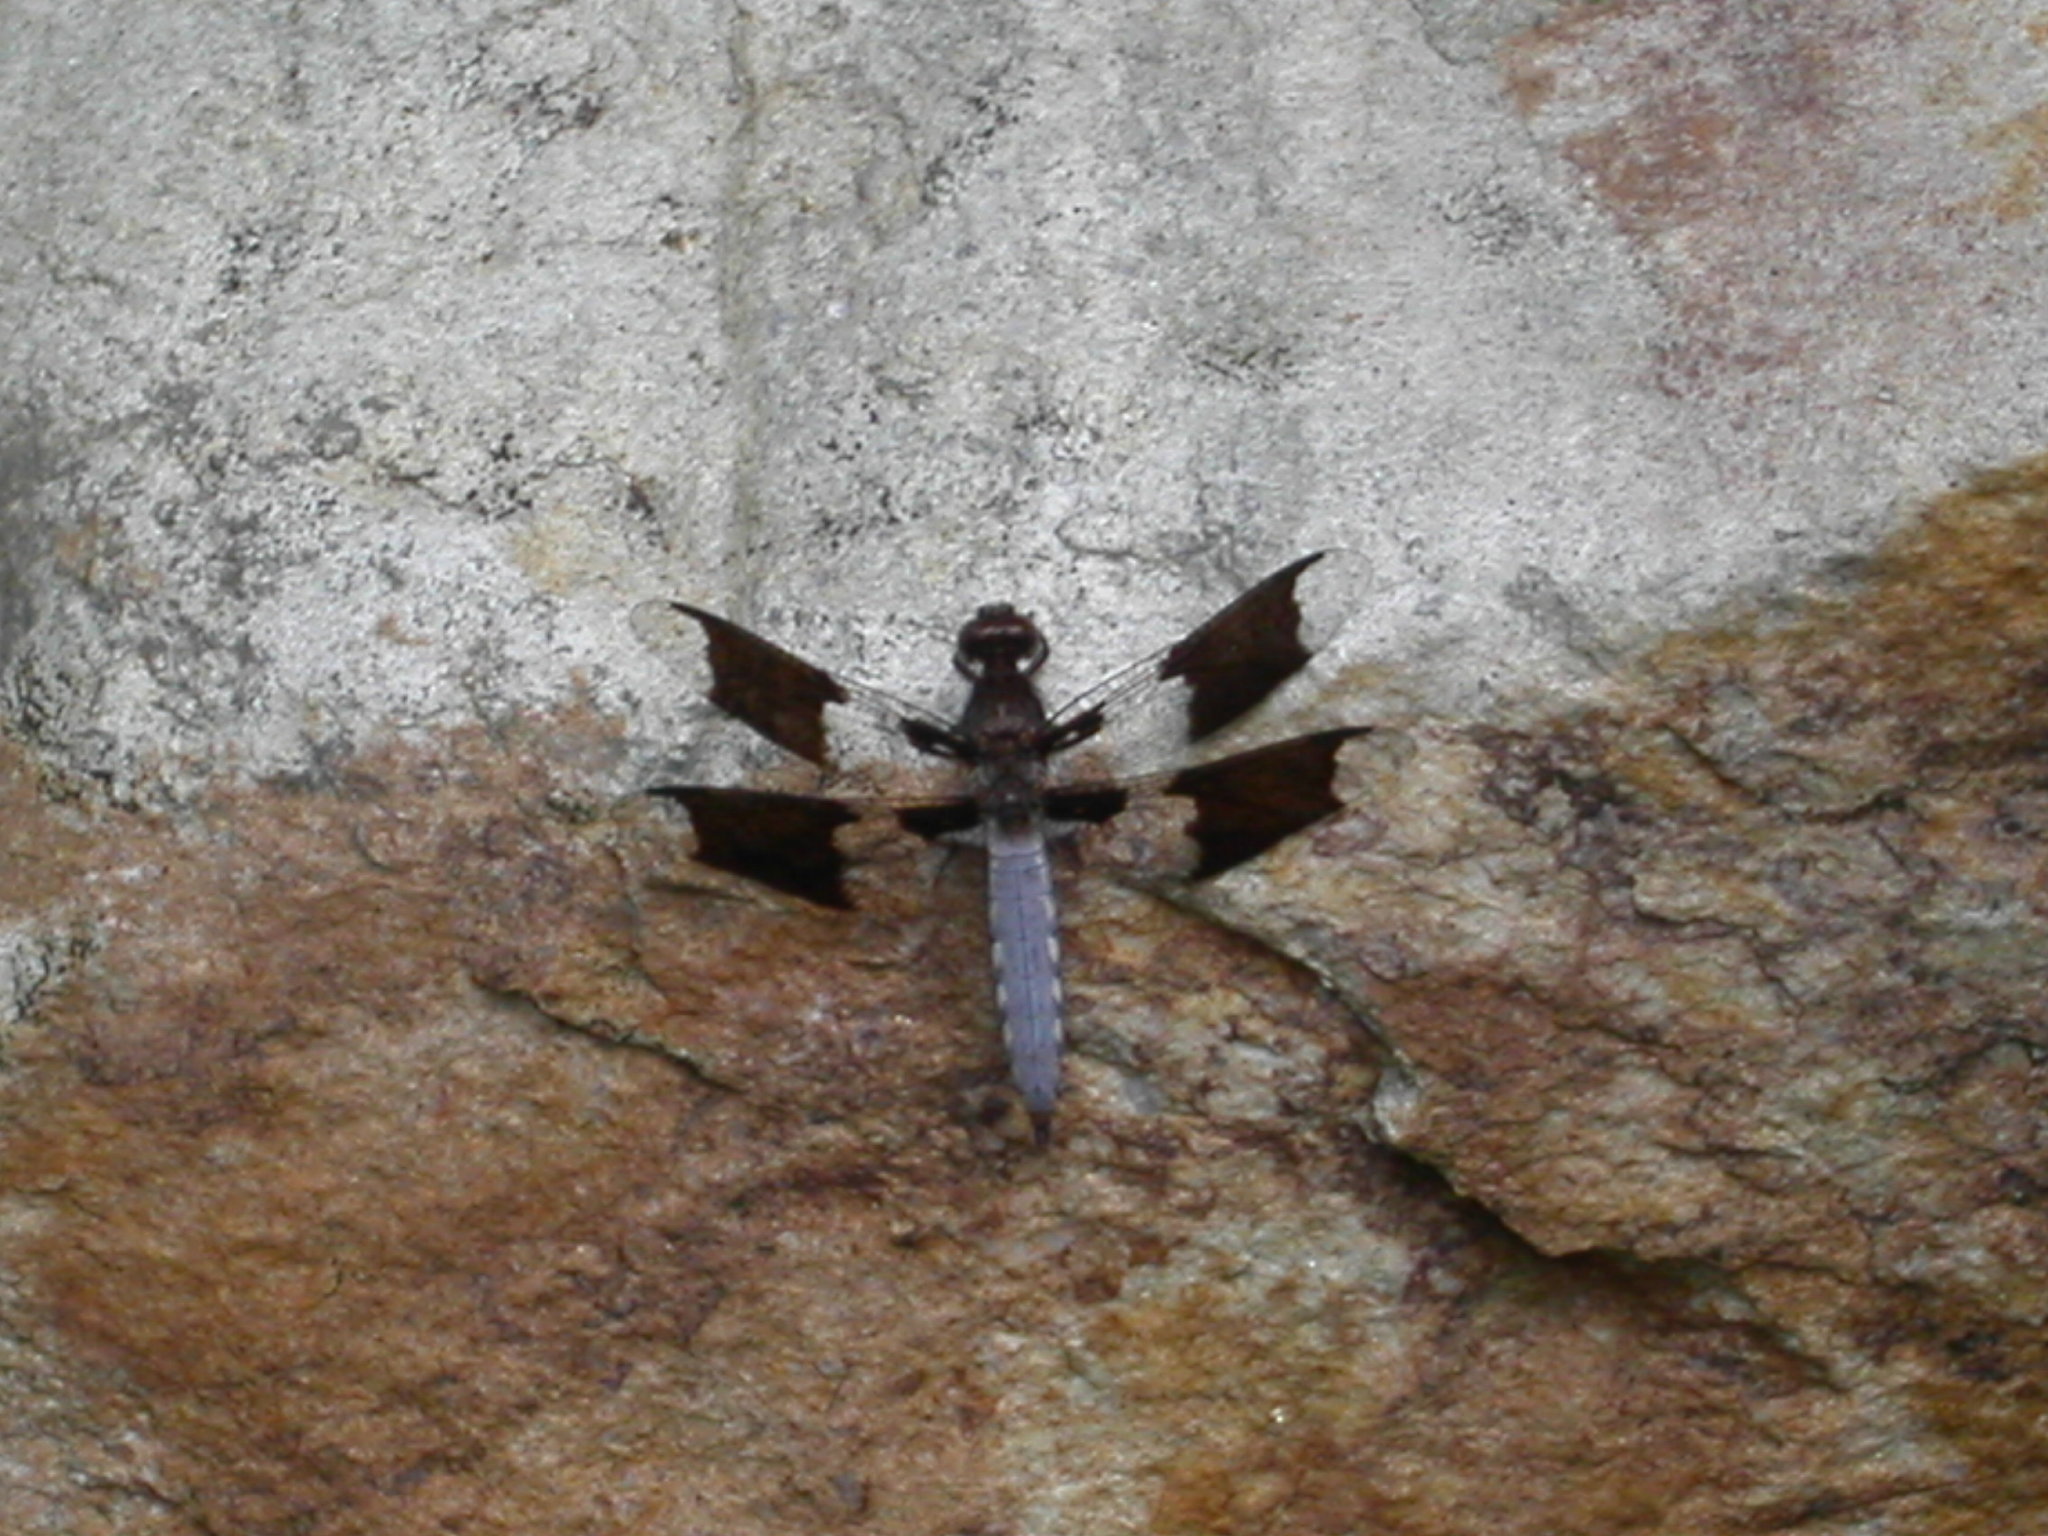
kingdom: Animalia
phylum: Arthropoda
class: Insecta
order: Odonata
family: Libellulidae
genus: Plathemis
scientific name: Plathemis lydia
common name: Common whitetail
